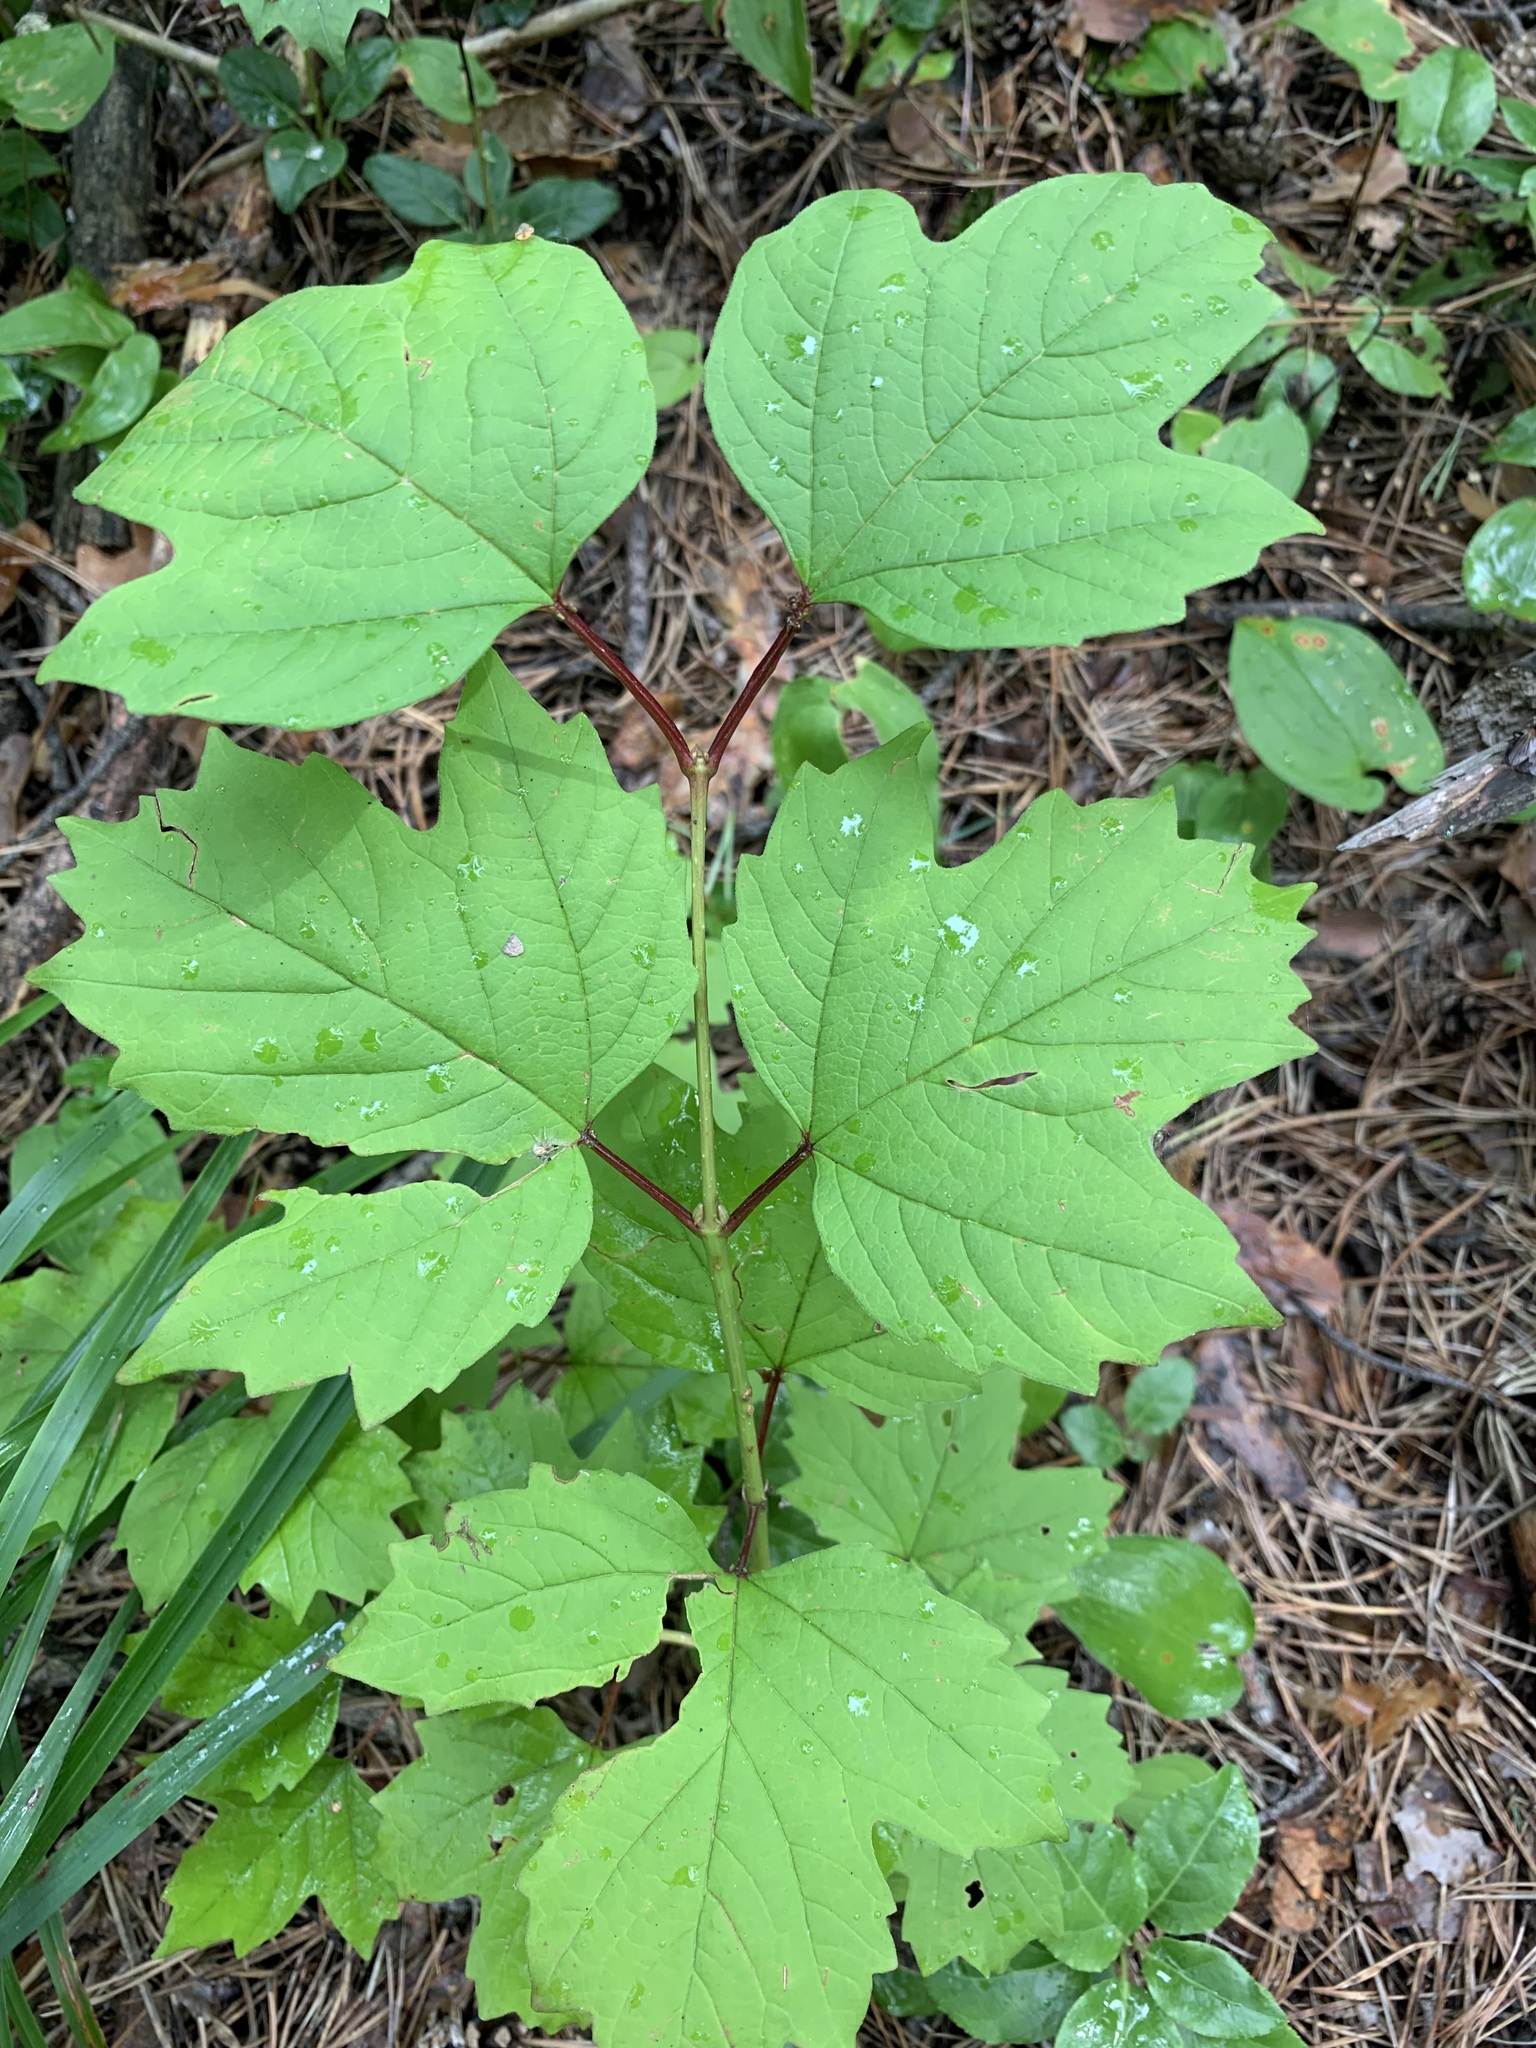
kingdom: Plantae
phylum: Tracheophyta
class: Magnoliopsida
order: Dipsacales
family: Viburnaceae
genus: Viburnum
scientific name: Viburnum opulus
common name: Guelder-rose
